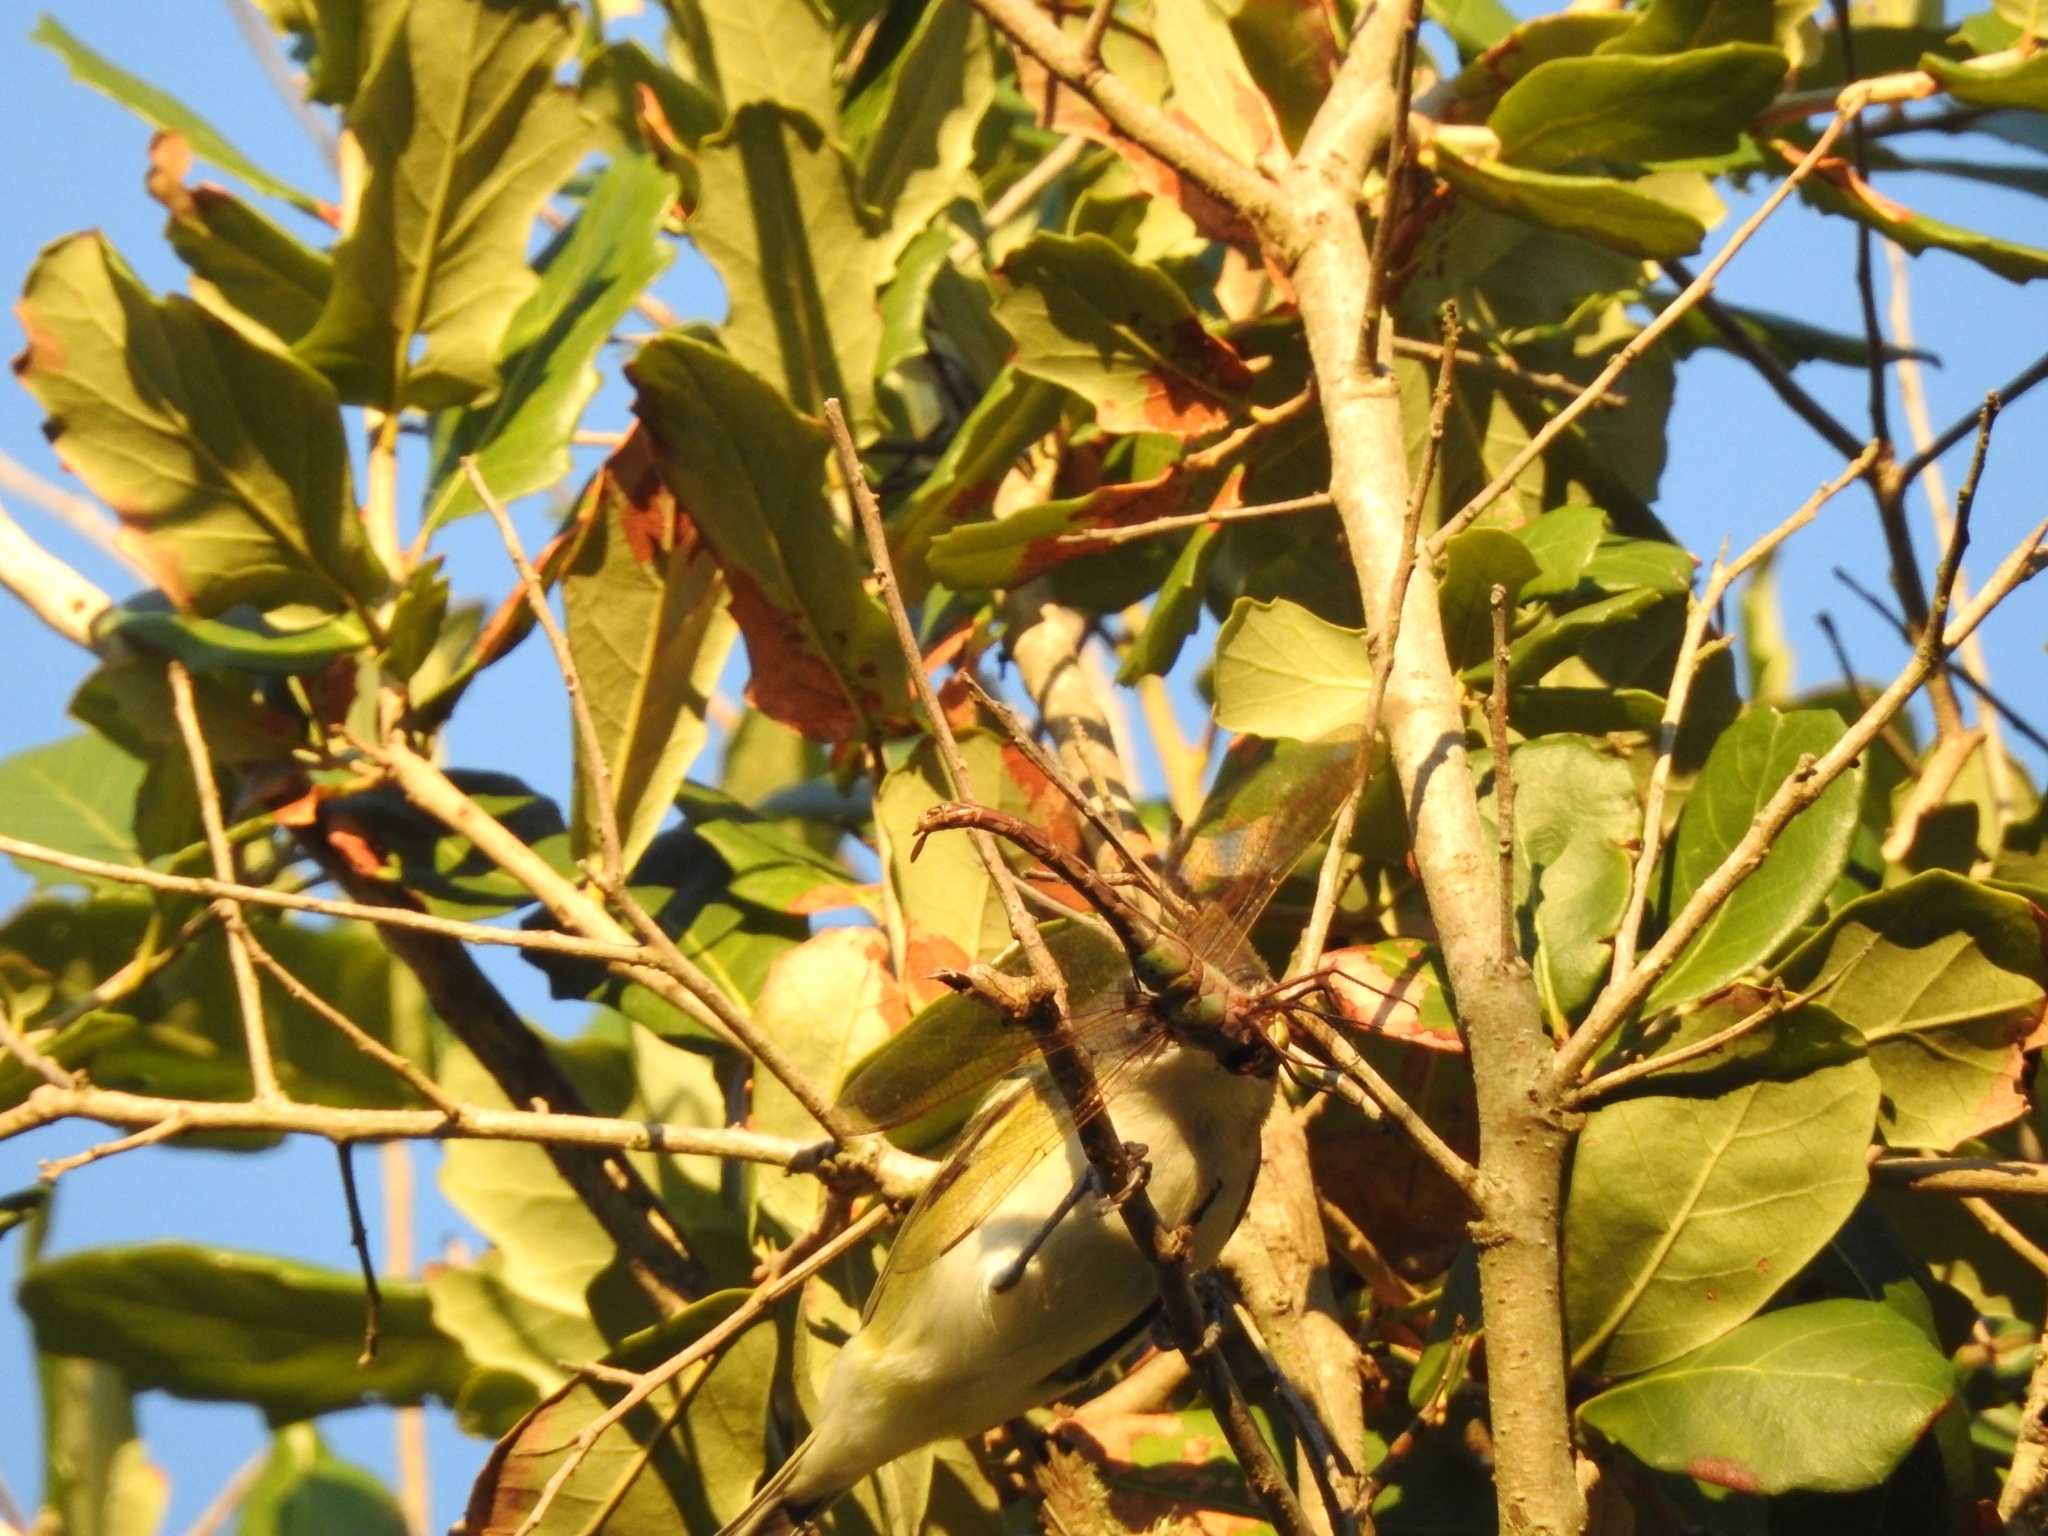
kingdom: Animalia
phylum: Chordata
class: Aves
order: Passeriformes
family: Vireonidae
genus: Vireo
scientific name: Vireo solitarius
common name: Blue-headed vireo
